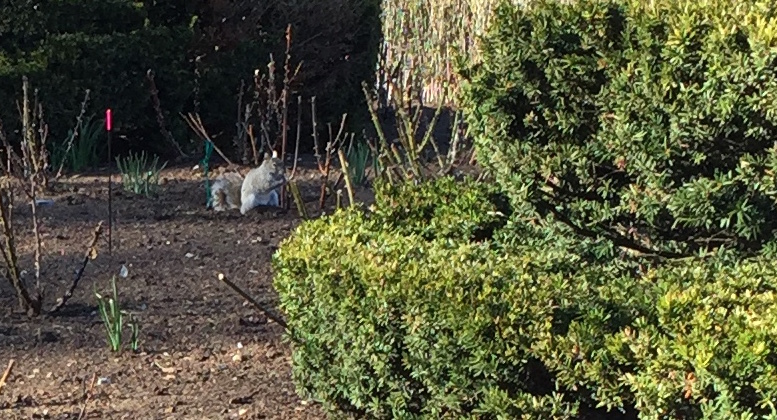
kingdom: Animalia
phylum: Chordata
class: Mammalia
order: Rodentia
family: Sciuridae
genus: Sciurus
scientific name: Sciurus carolinensis
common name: Eastern gray squirrel
